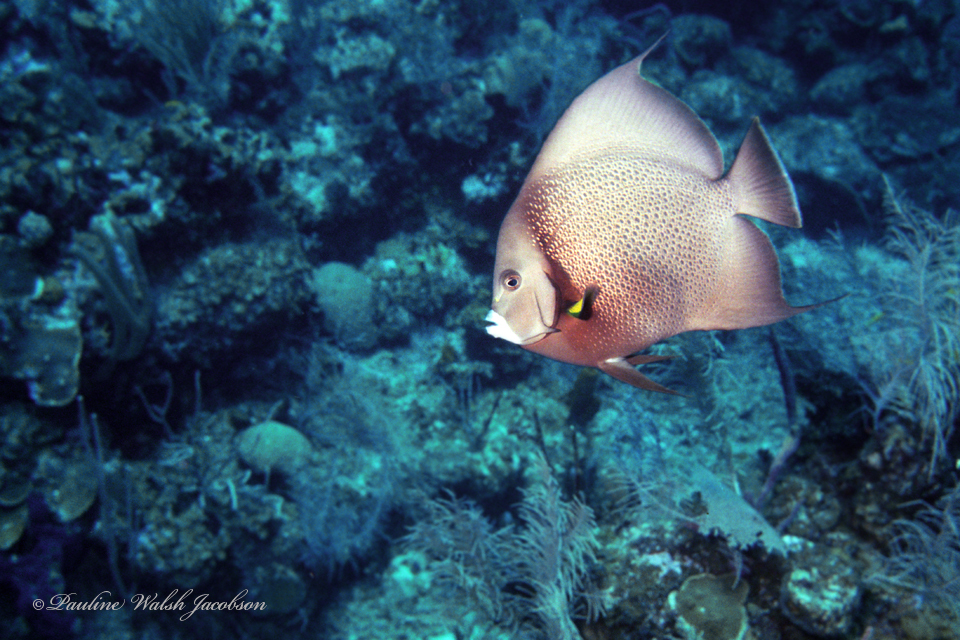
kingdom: Animalia
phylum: Chordata
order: Perciformes
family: Pomacanthidae
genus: Pomacanthus
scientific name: Pomacanthus arcuatus
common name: Gray angelfish
